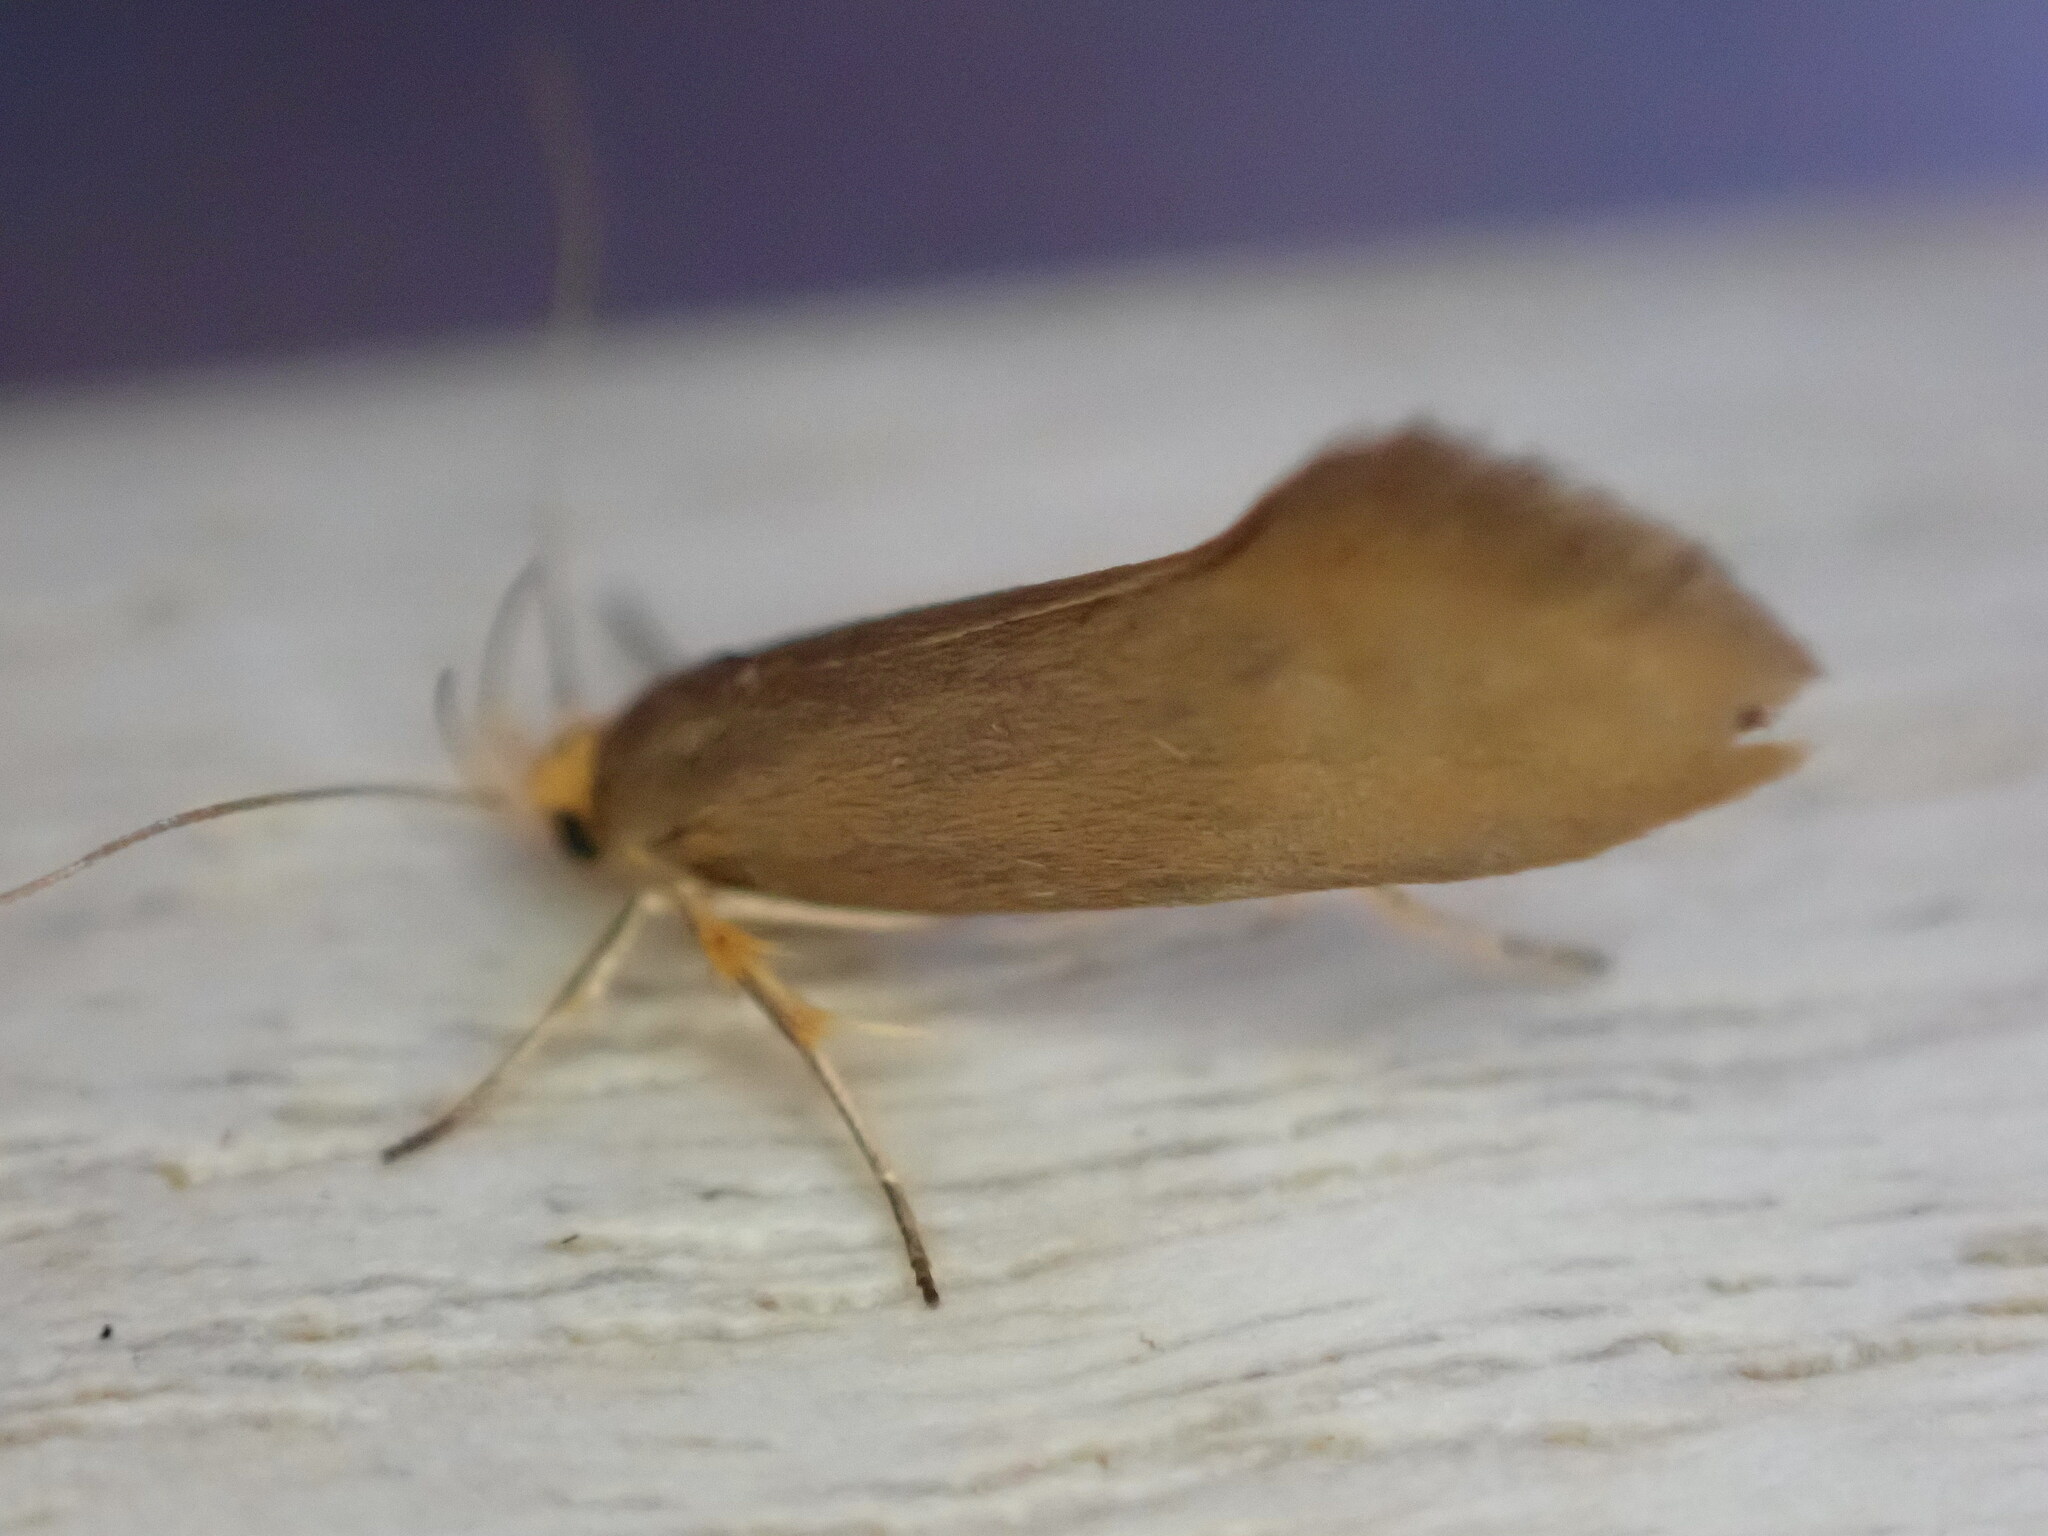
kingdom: Animalia
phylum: Arthropoda
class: Insecta
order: Lepidoptera
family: Oecophoridae
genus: Borkhausenia
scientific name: Borkhausenia Crassa unitella
